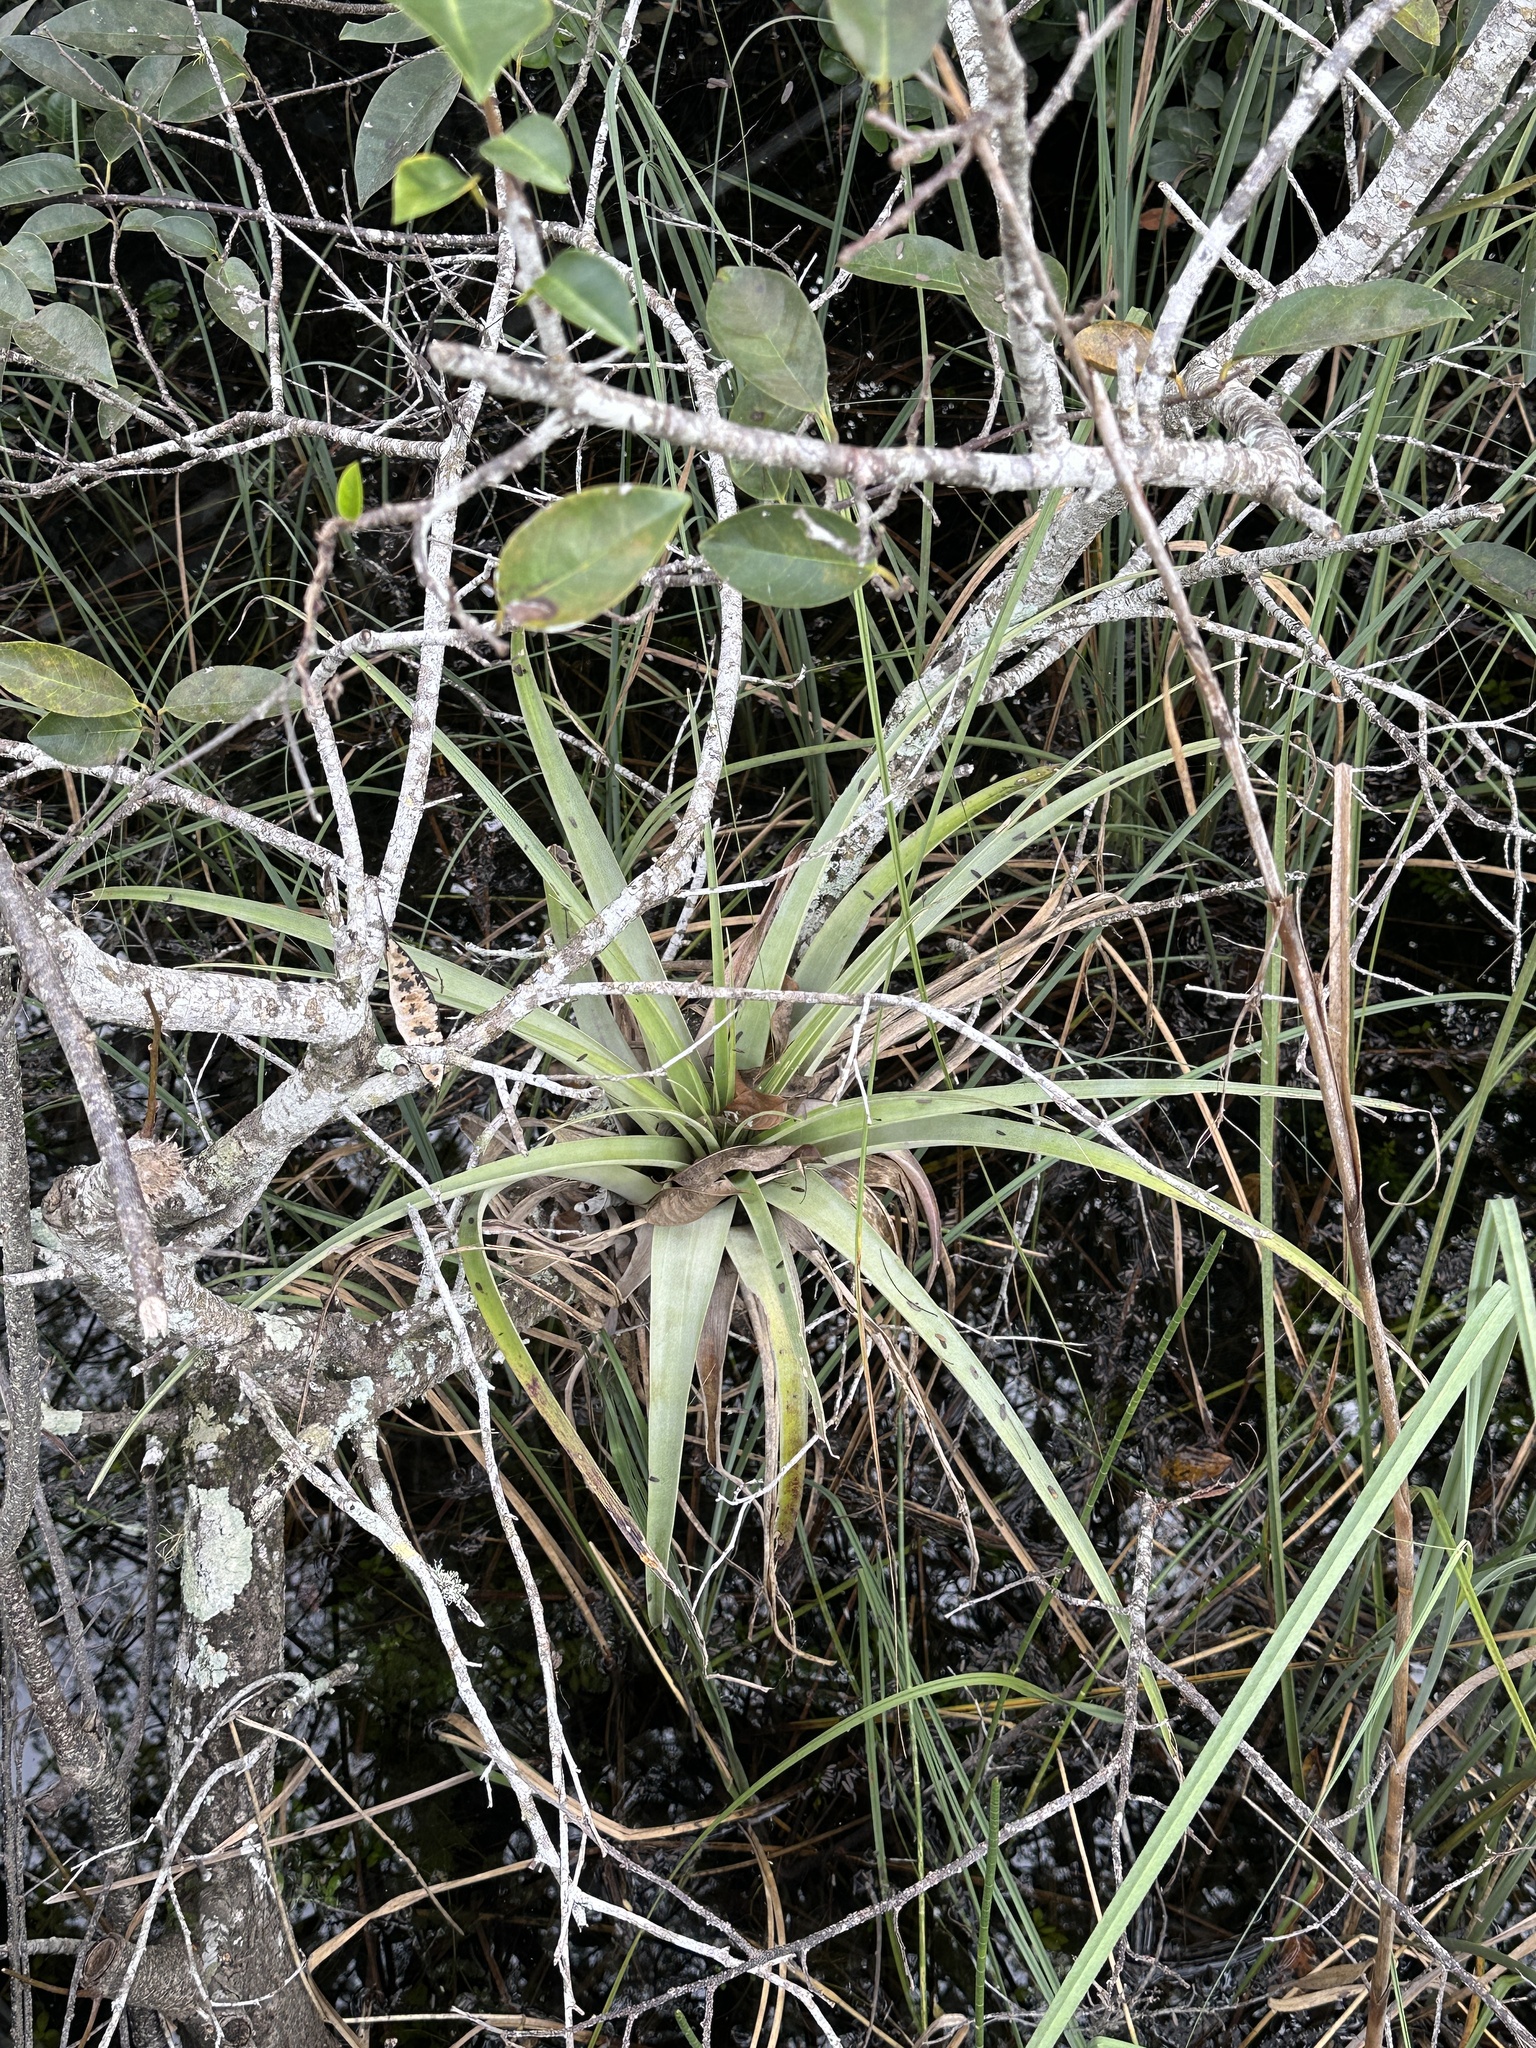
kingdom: Plantae
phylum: Tracheophyta
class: Liliopsida
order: Poales
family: Bromeliaceae
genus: Tillandsia
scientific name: Tillandsia utriculata
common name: Wild pine
